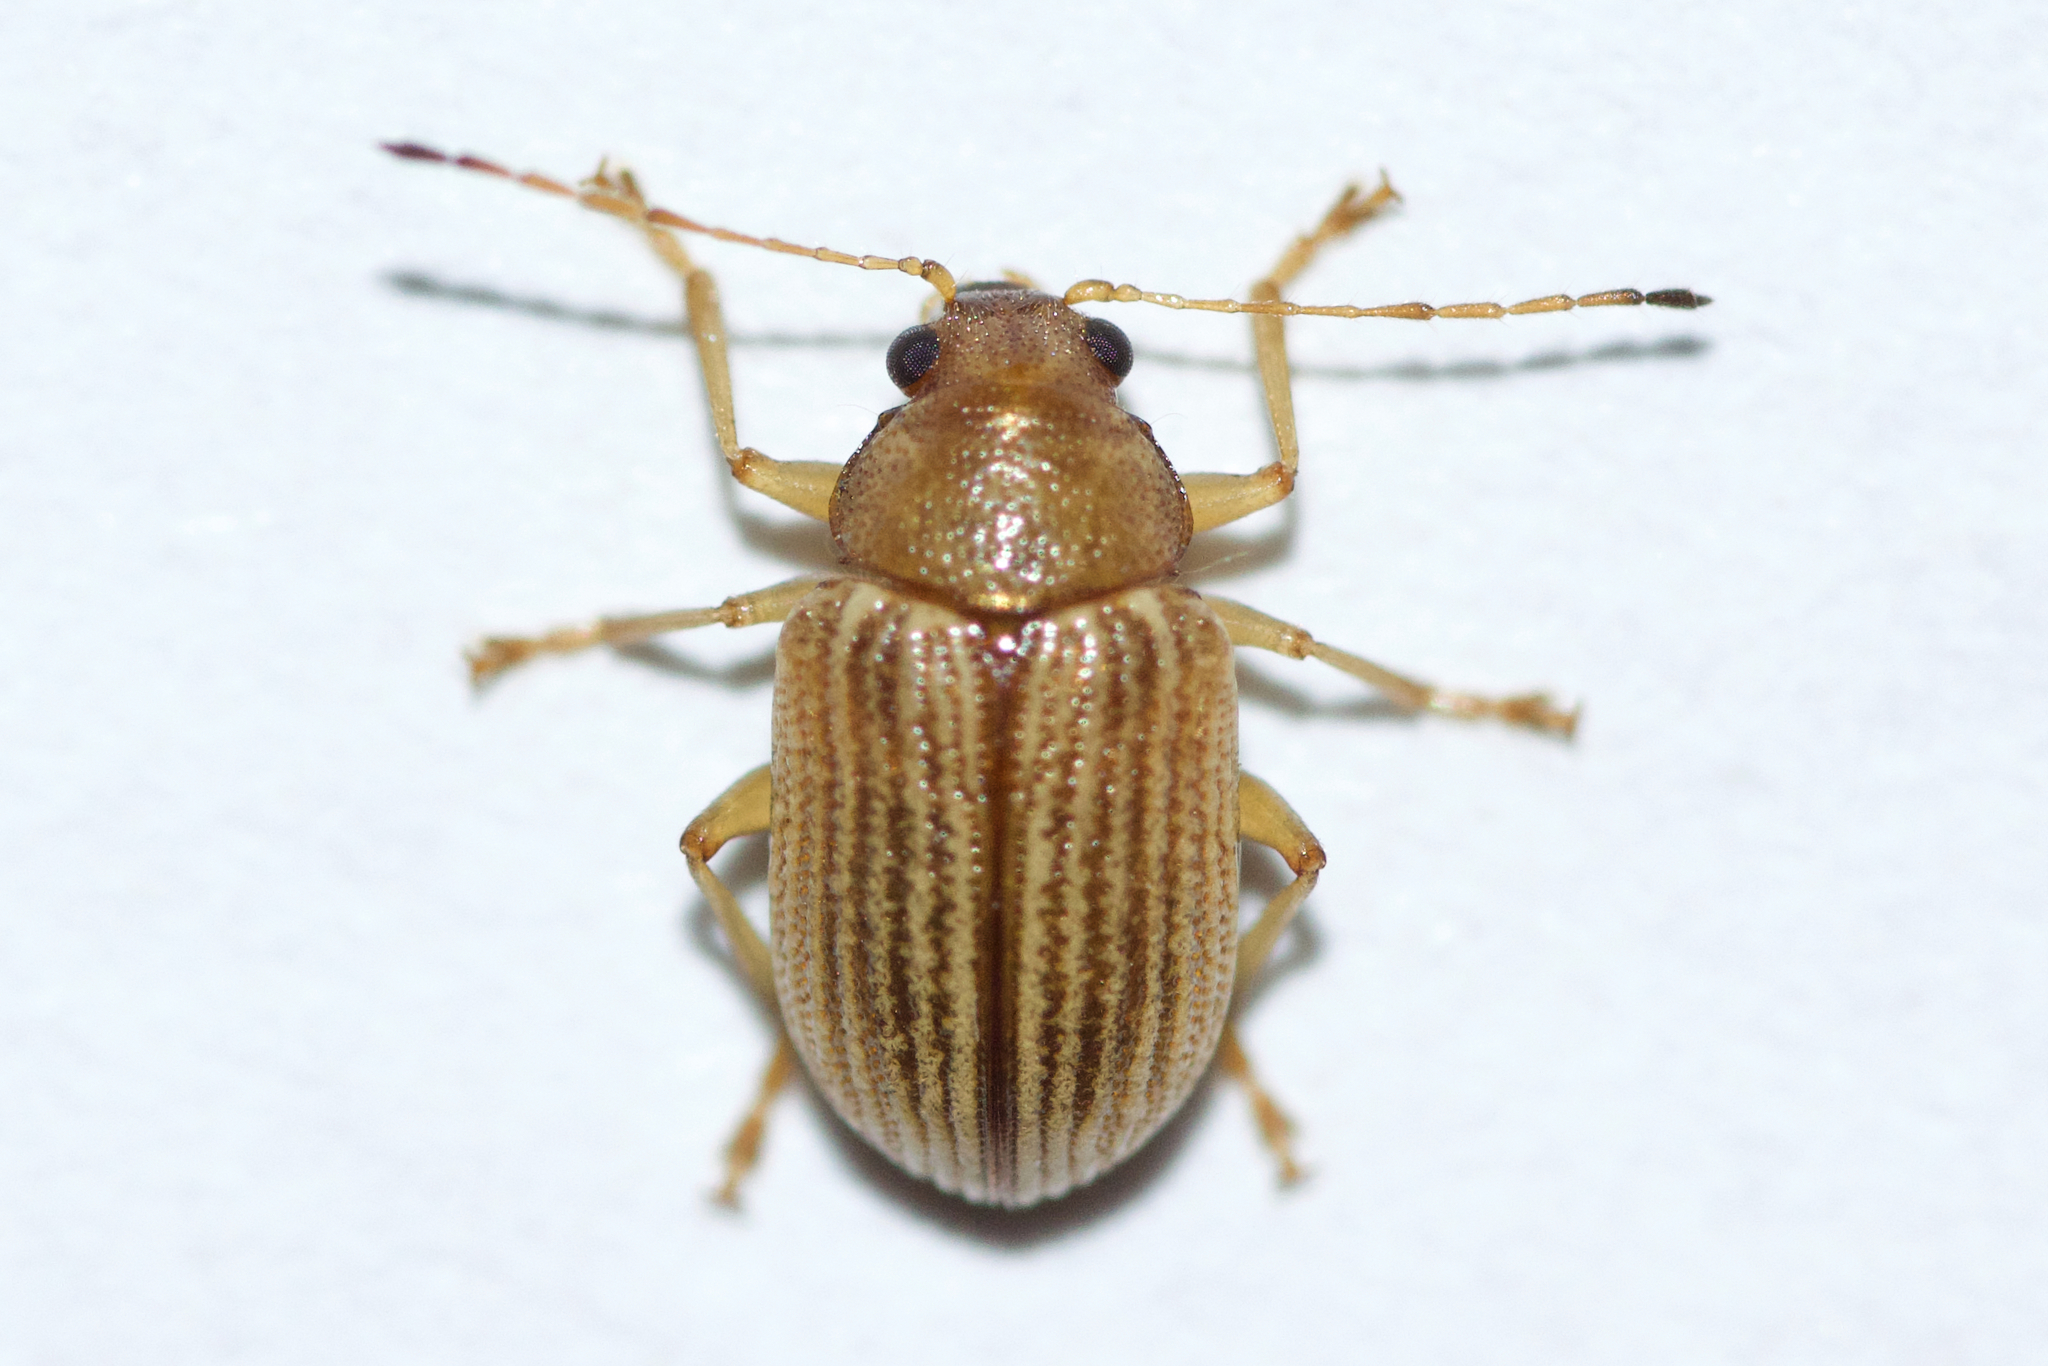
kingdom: Animalia
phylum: Arthropoda
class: Insecta
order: Coleoptera
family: Chrysomelidae
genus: Colaspis
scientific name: Colaspis brunnea
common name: Grape colaspis
